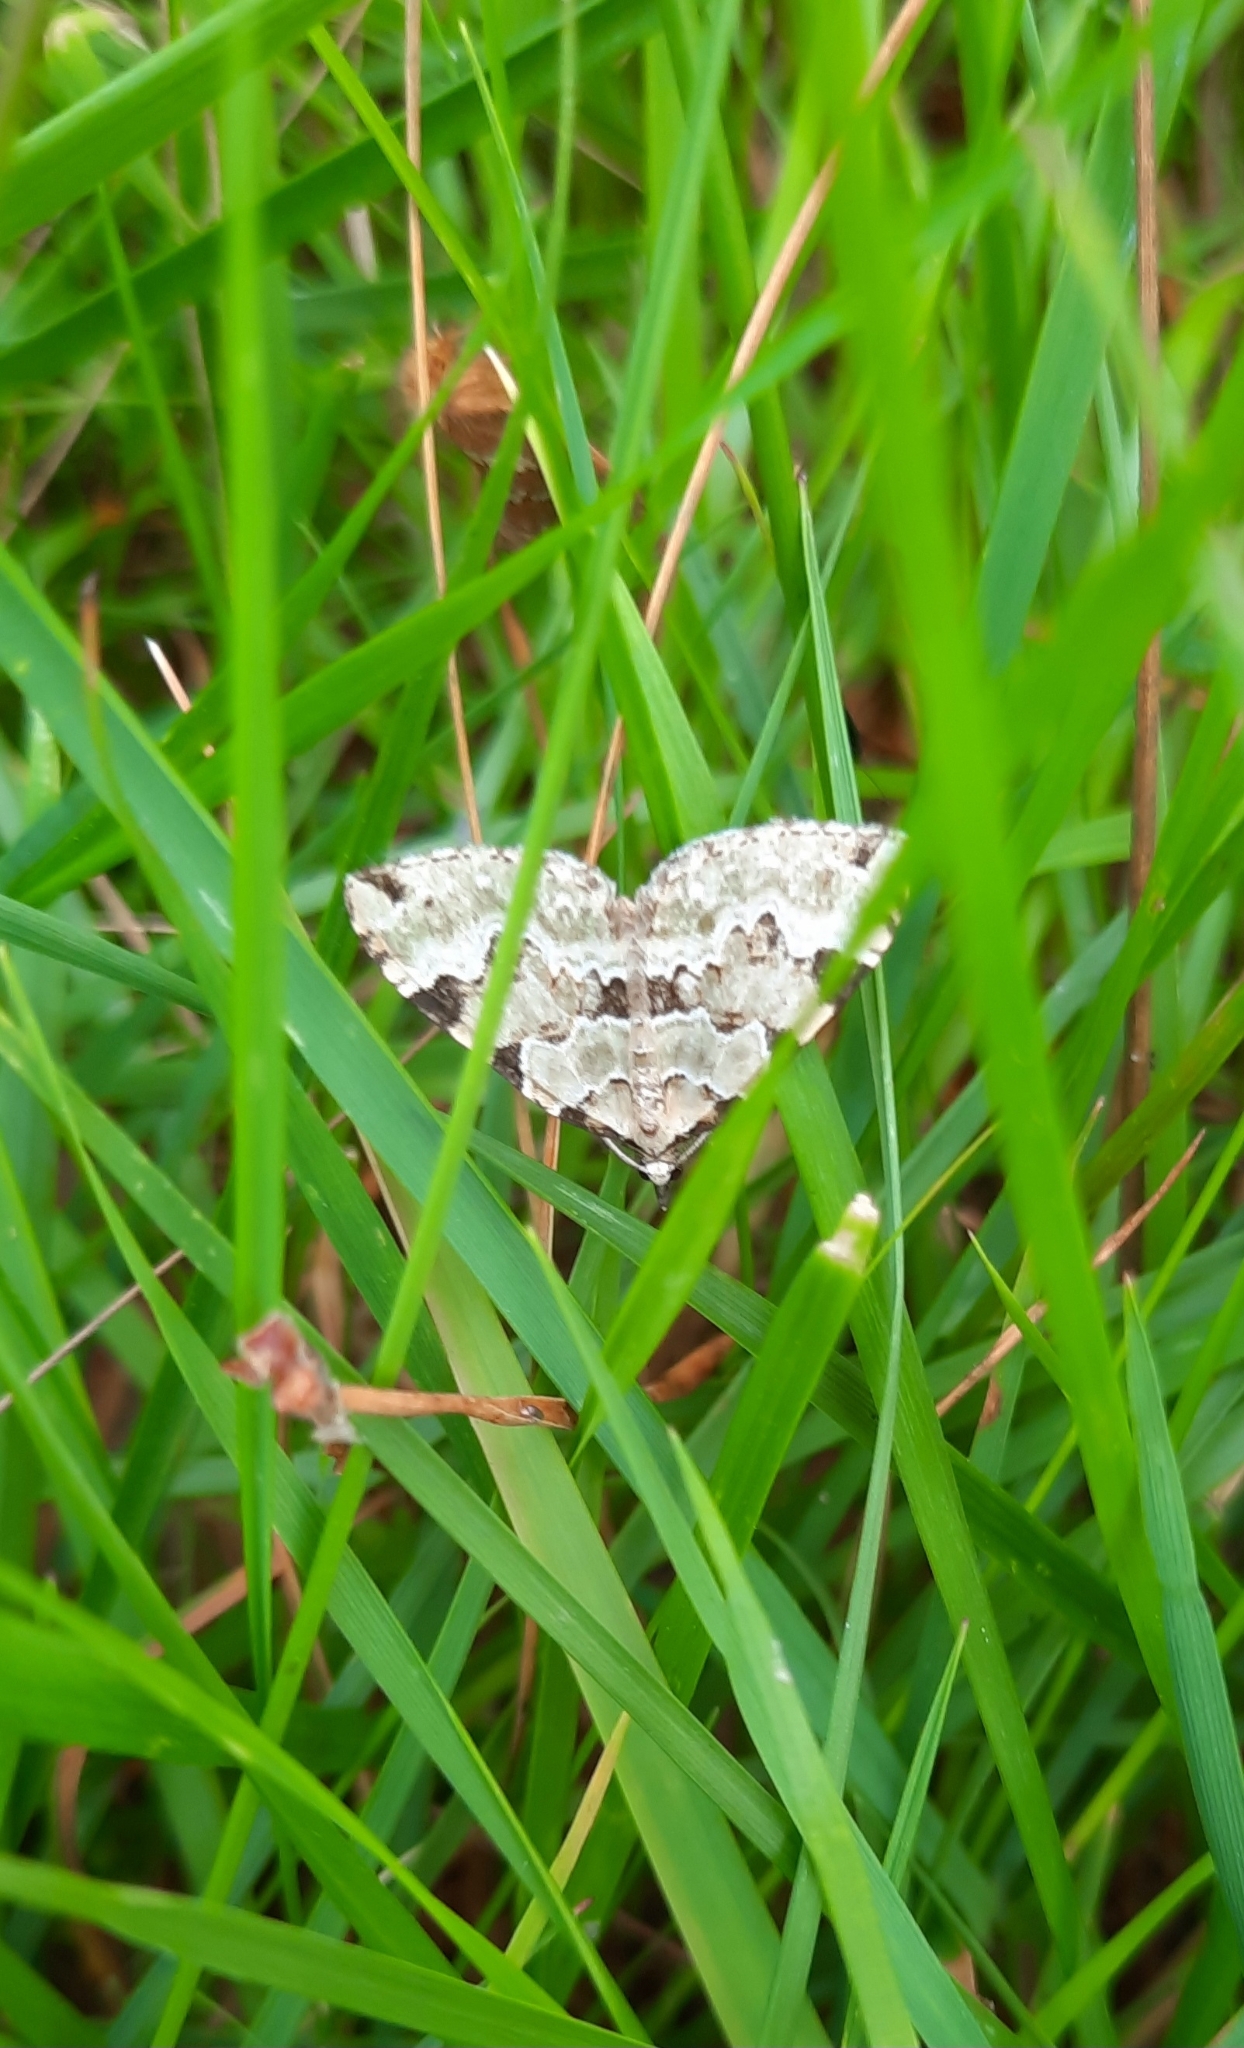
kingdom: Animalia
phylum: Arthropoda
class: Insecta
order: Lepidoptera
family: Geometridae
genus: Colostygia
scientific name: Colostygia pectinataria
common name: Green carpet
